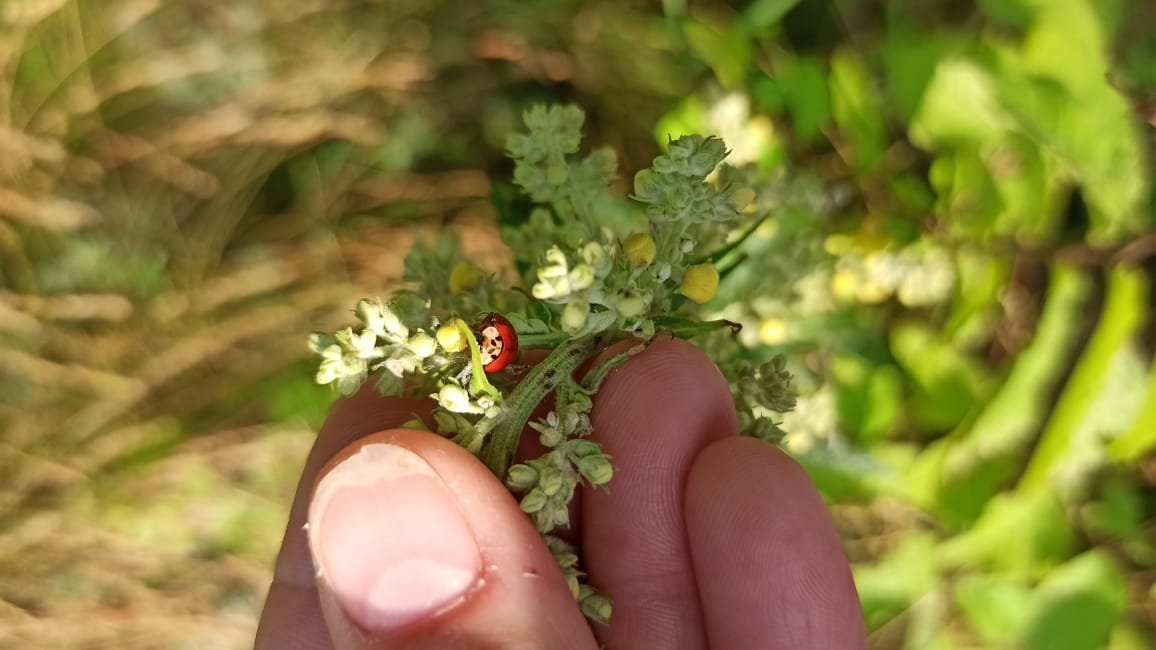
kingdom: Animalia
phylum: Arthropoda
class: Insecta
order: Coleoptera
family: Coccinellidae
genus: Harmonia
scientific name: Harmonia axyridis
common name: Harlequin ladybird
